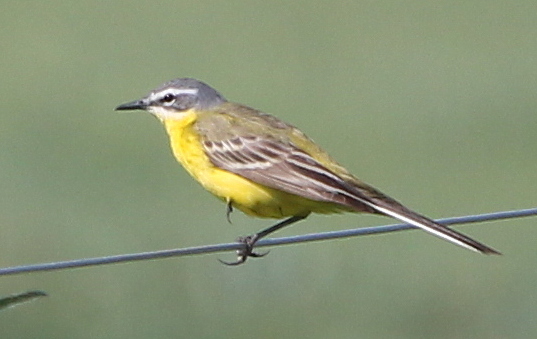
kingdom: Animalia
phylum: Chordata
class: Aves
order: Passeriformes
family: Motacillidae
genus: Motacilla
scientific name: Motacilla flava
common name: Western yellow wagtail
